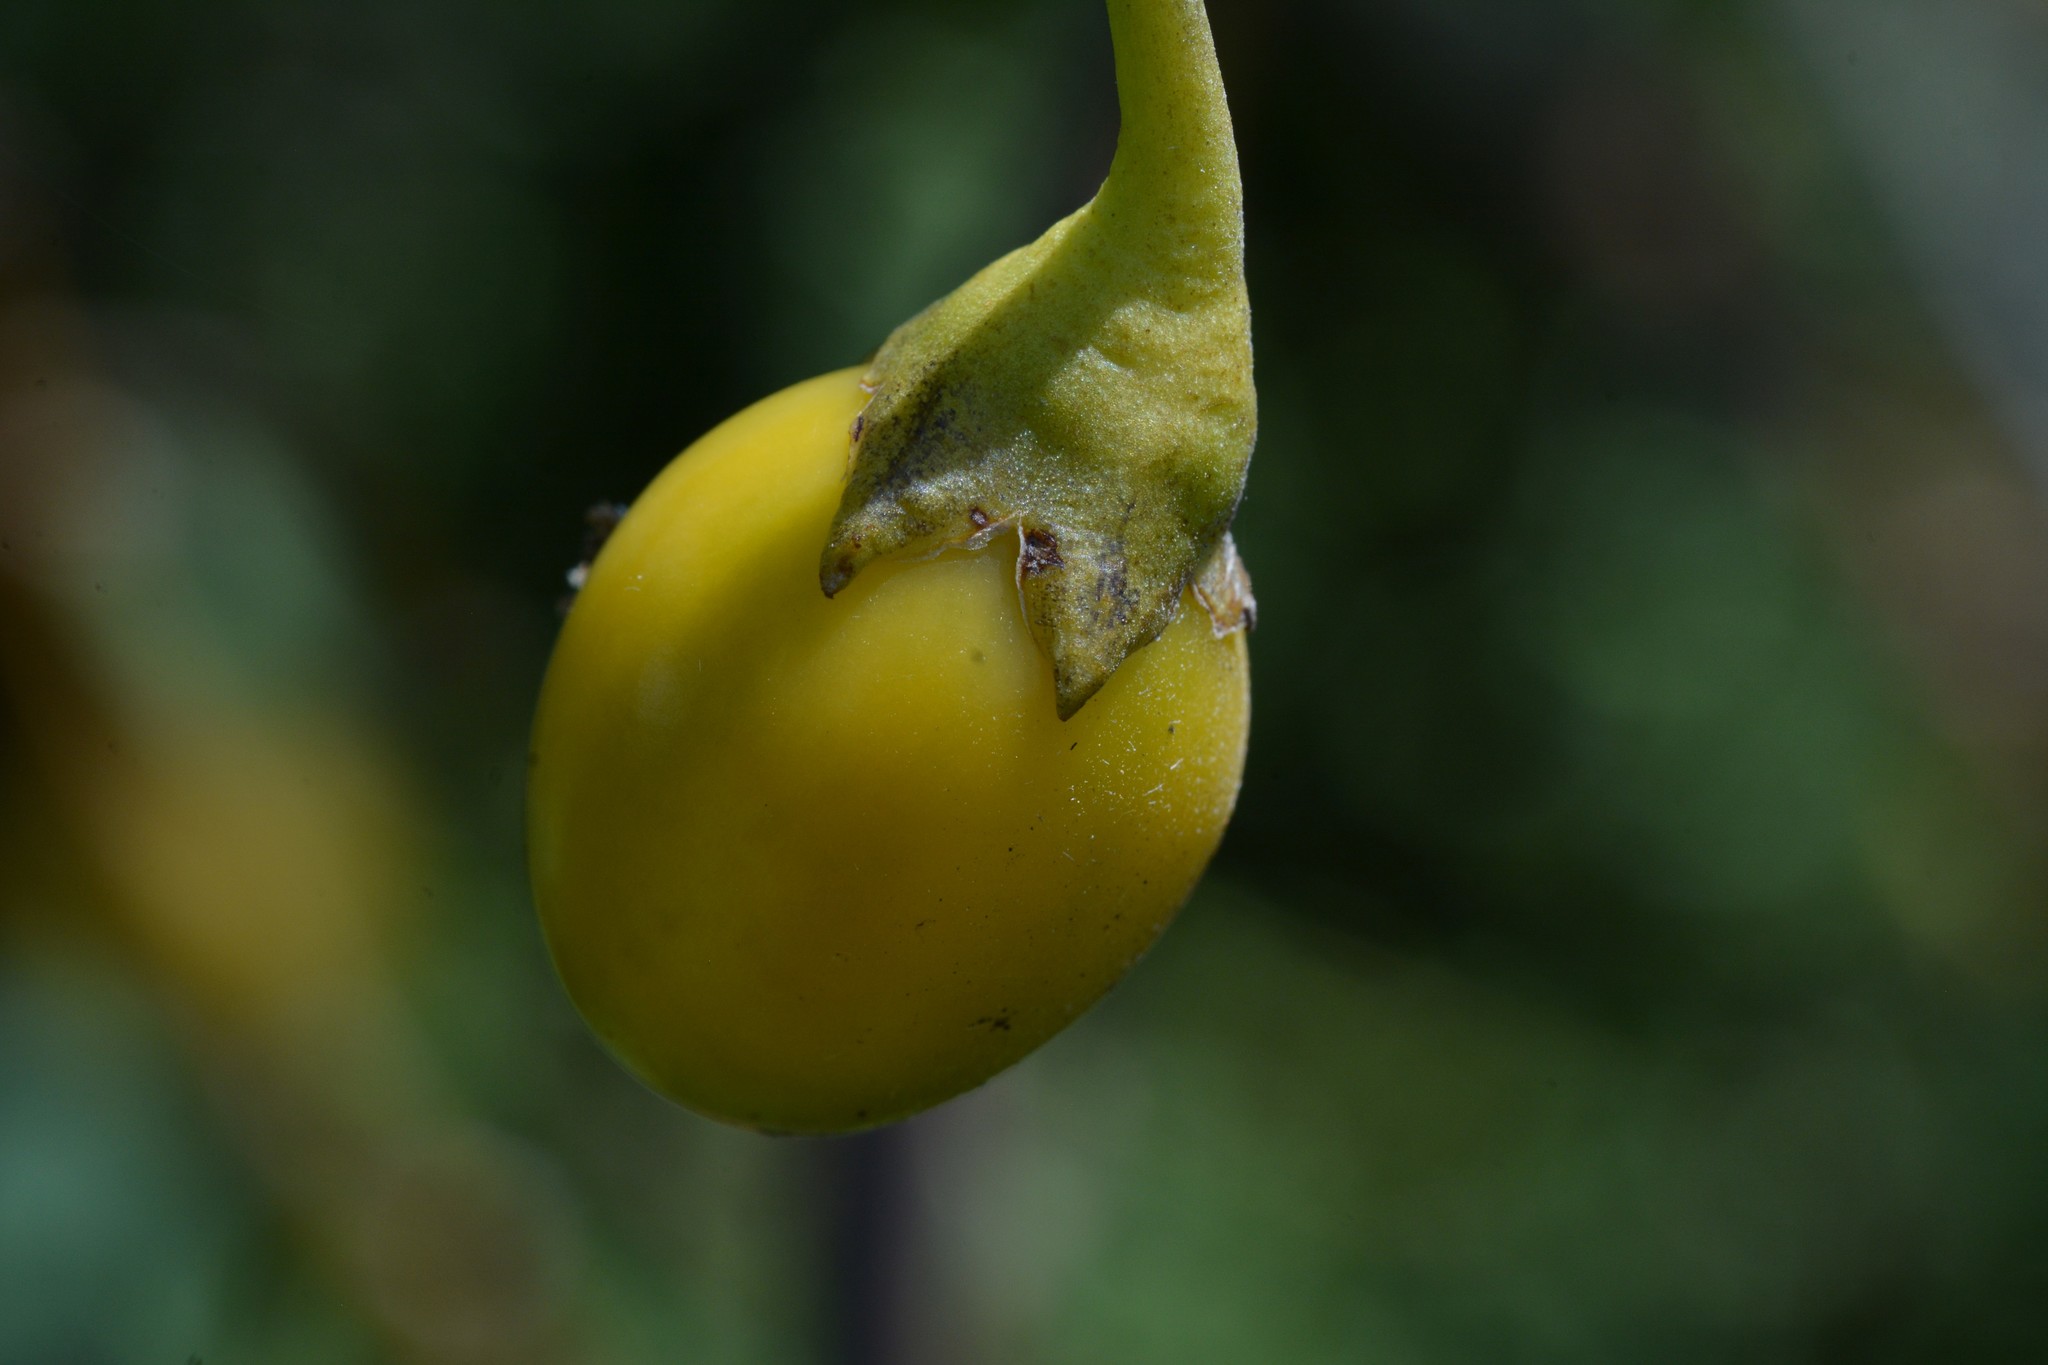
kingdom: Plantae
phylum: Tracheophyta
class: Magnoliopsida
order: Solanales
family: Solanaceae
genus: Solanum
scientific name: Solanum laciniatum
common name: Kangaroo-apple
